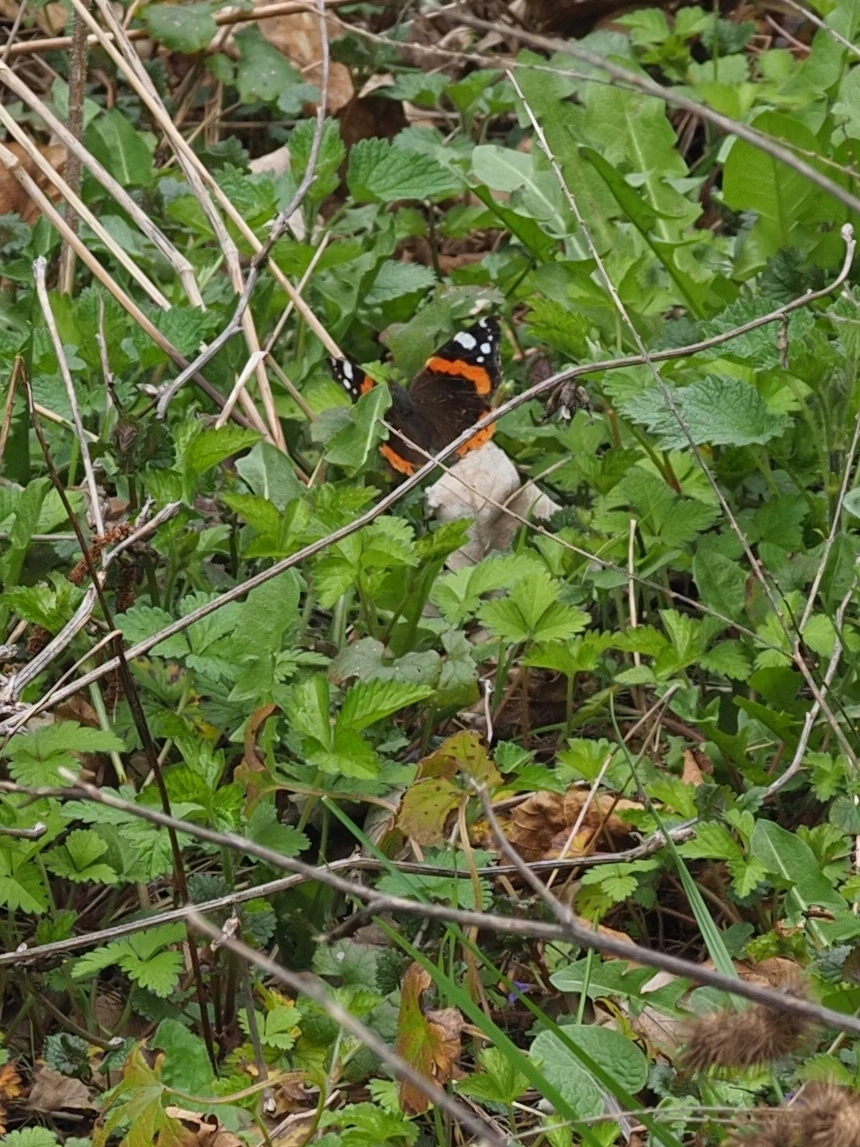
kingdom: Animalia
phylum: Arthropoda
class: Insecta
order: Lepidoptera
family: Nymphalidae
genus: Vanessa
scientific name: Vanessa atalanta
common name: Red admiral
